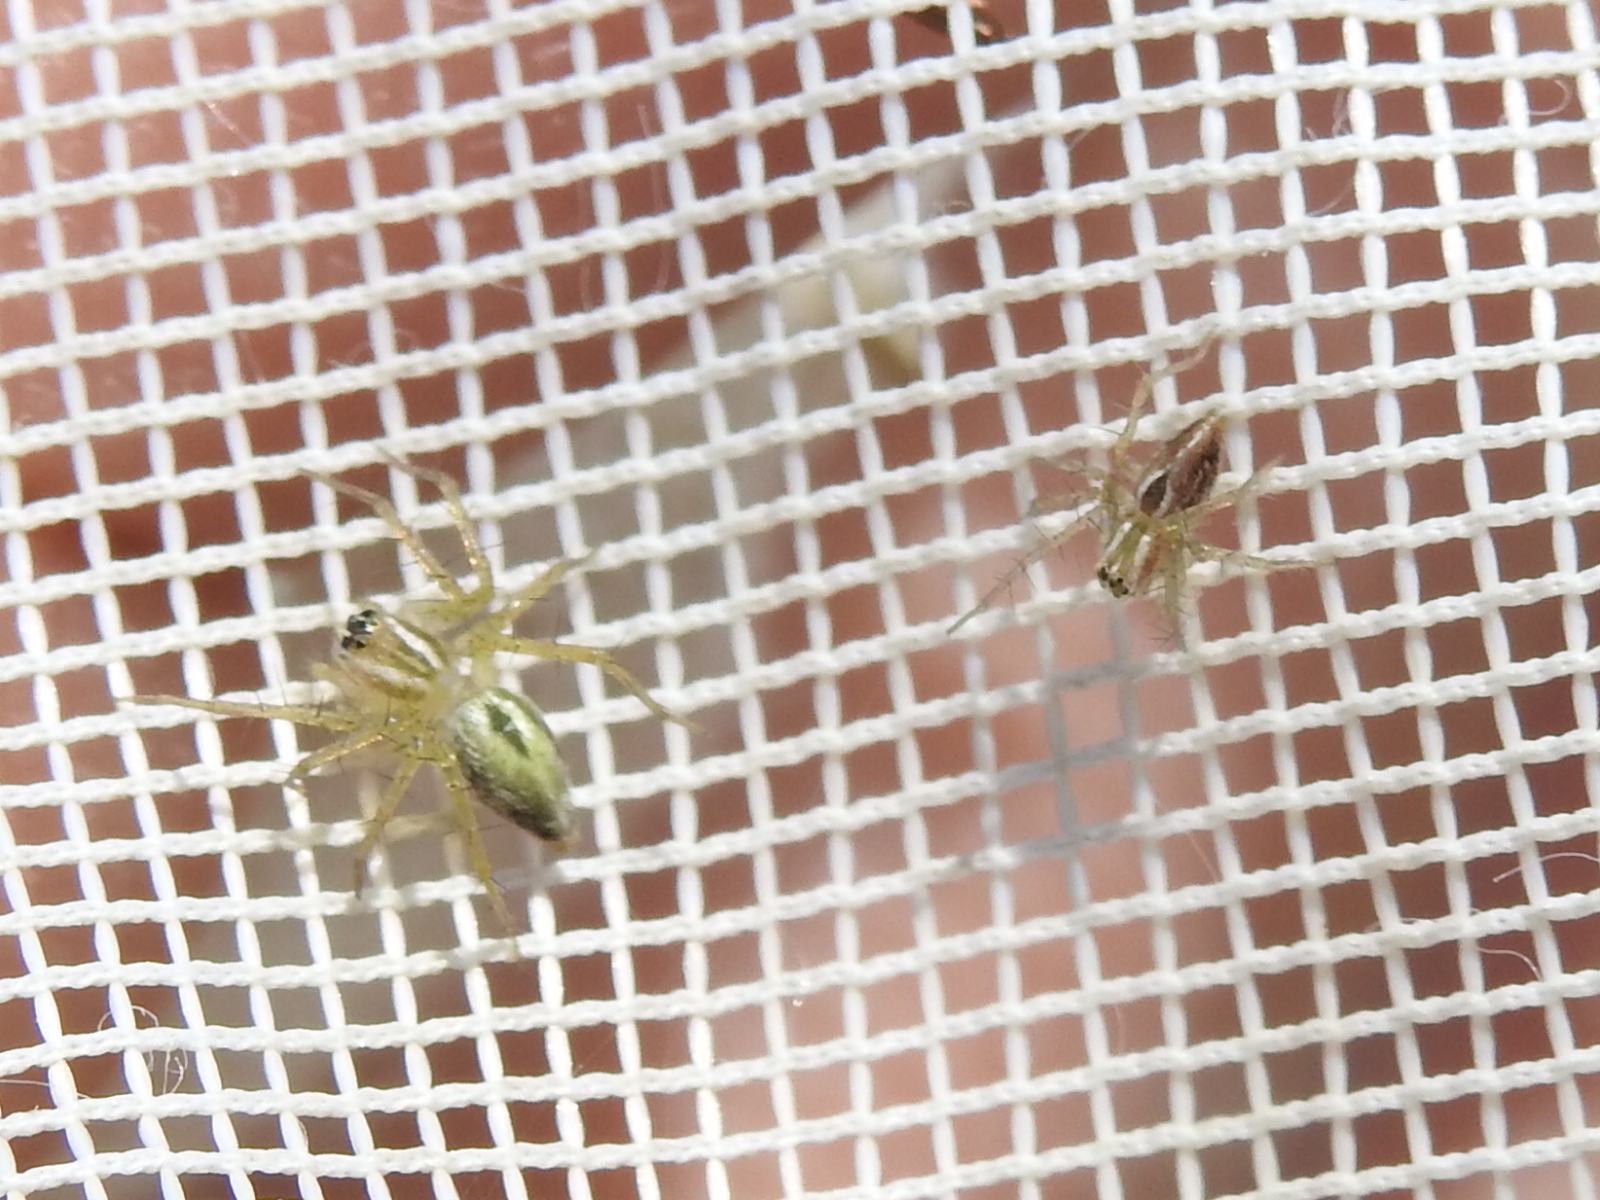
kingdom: Animalia
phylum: Arthropoda
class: Arachnida
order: Araneae
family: Oxyopidae
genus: Oxyopes
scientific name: Oxyopes salticus
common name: Lynx spiders
